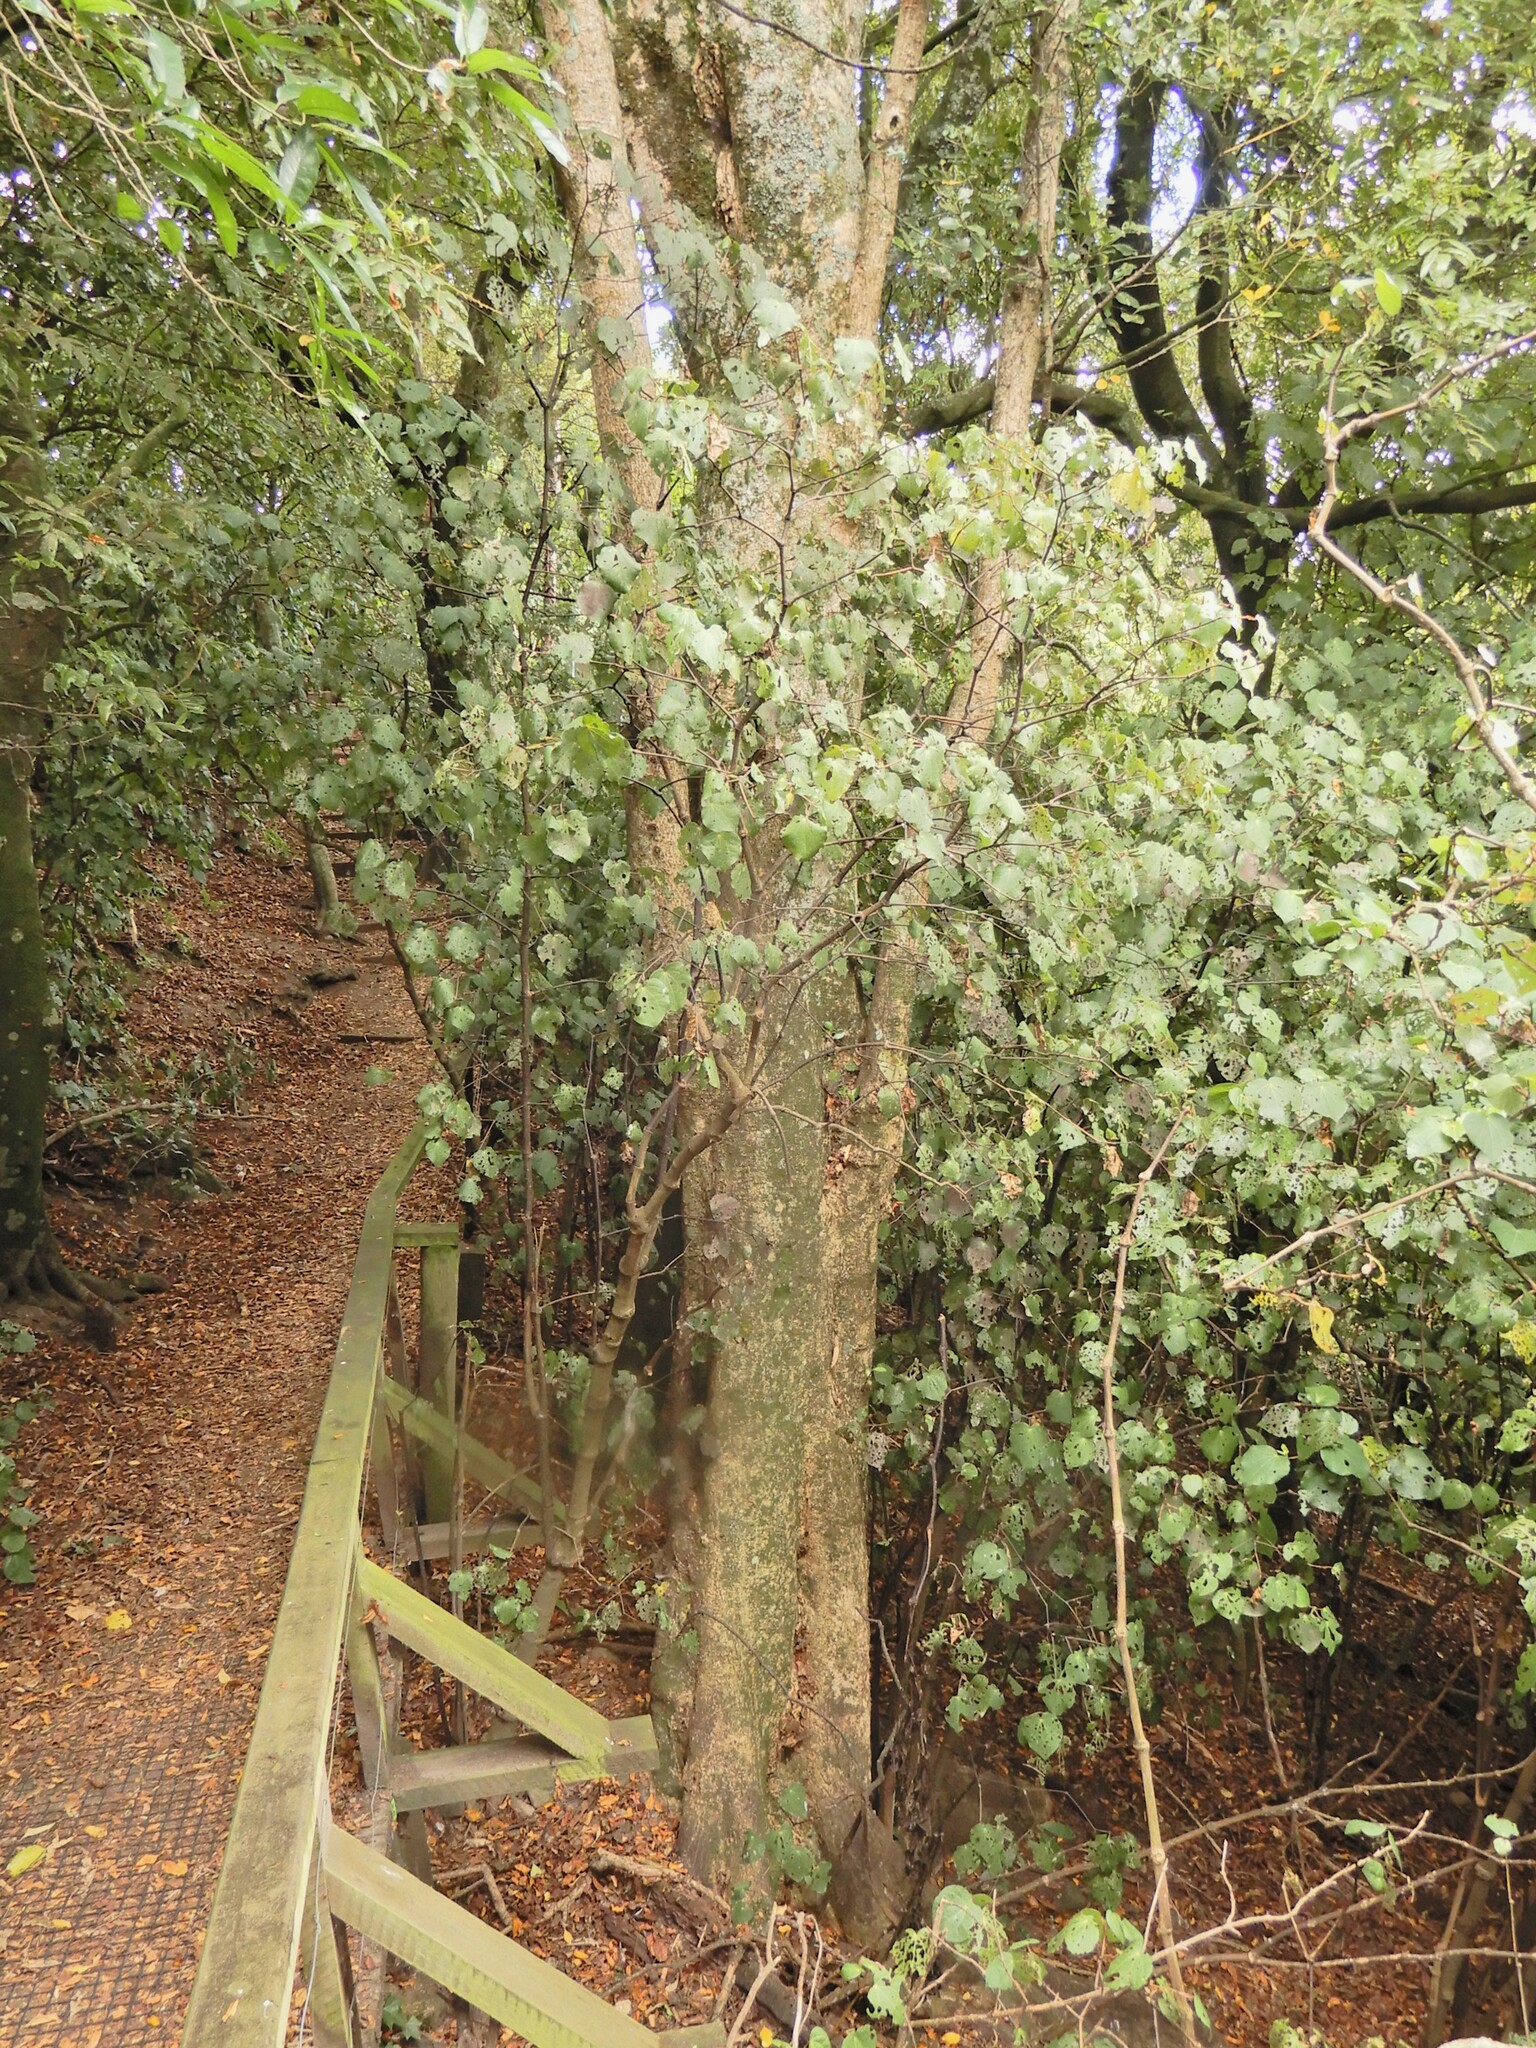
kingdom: Plantae
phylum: Tracheophyta
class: Magnoliopsida
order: Laurales
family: Atherospermataceae
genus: Laurelia
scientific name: Laurelia novae-zelandiae
